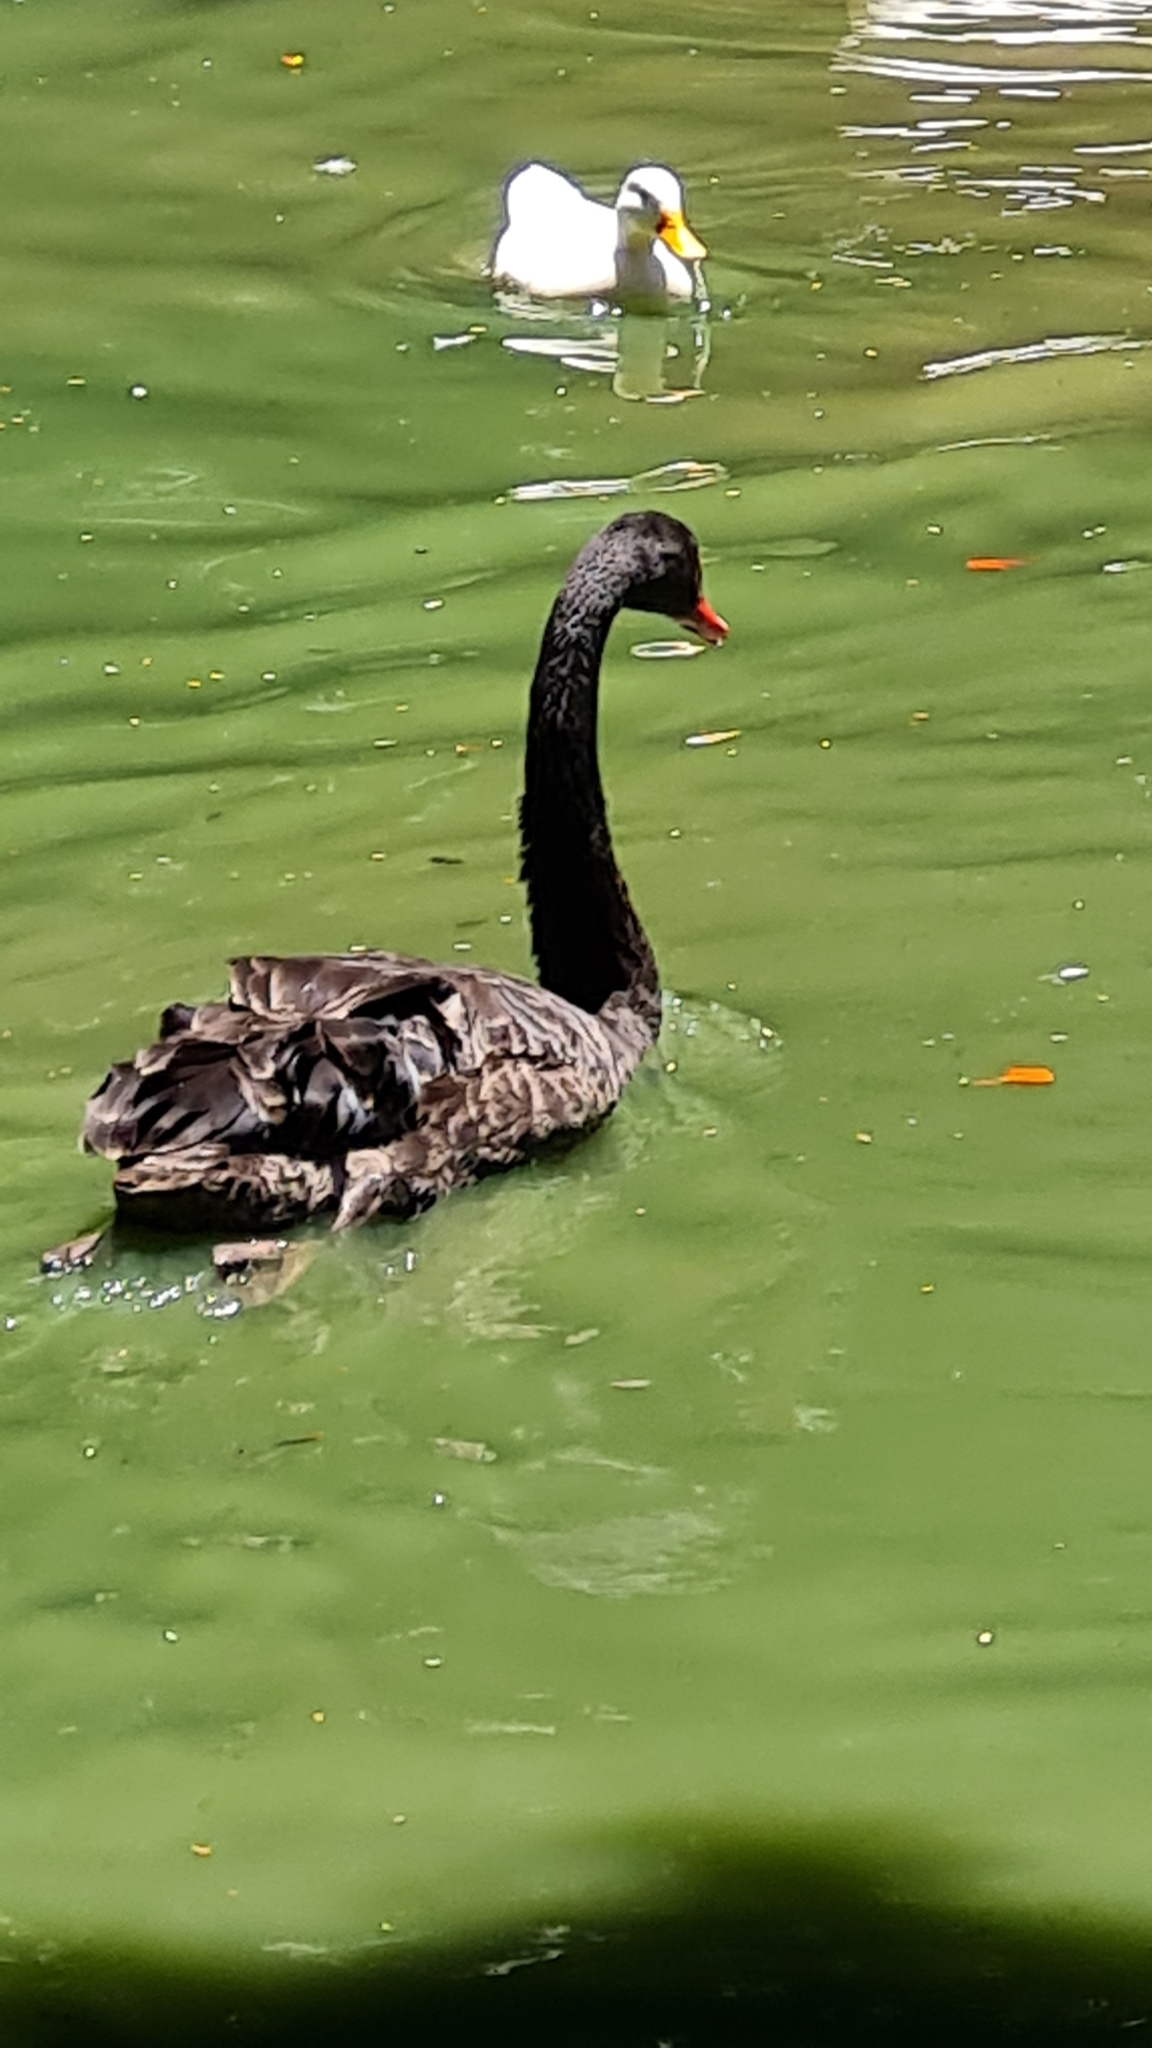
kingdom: Animalia
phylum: Chordata
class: Aves
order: Anseriformes
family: Anatidae
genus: Cygnus
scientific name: Cygnus atratus
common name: Black swan
